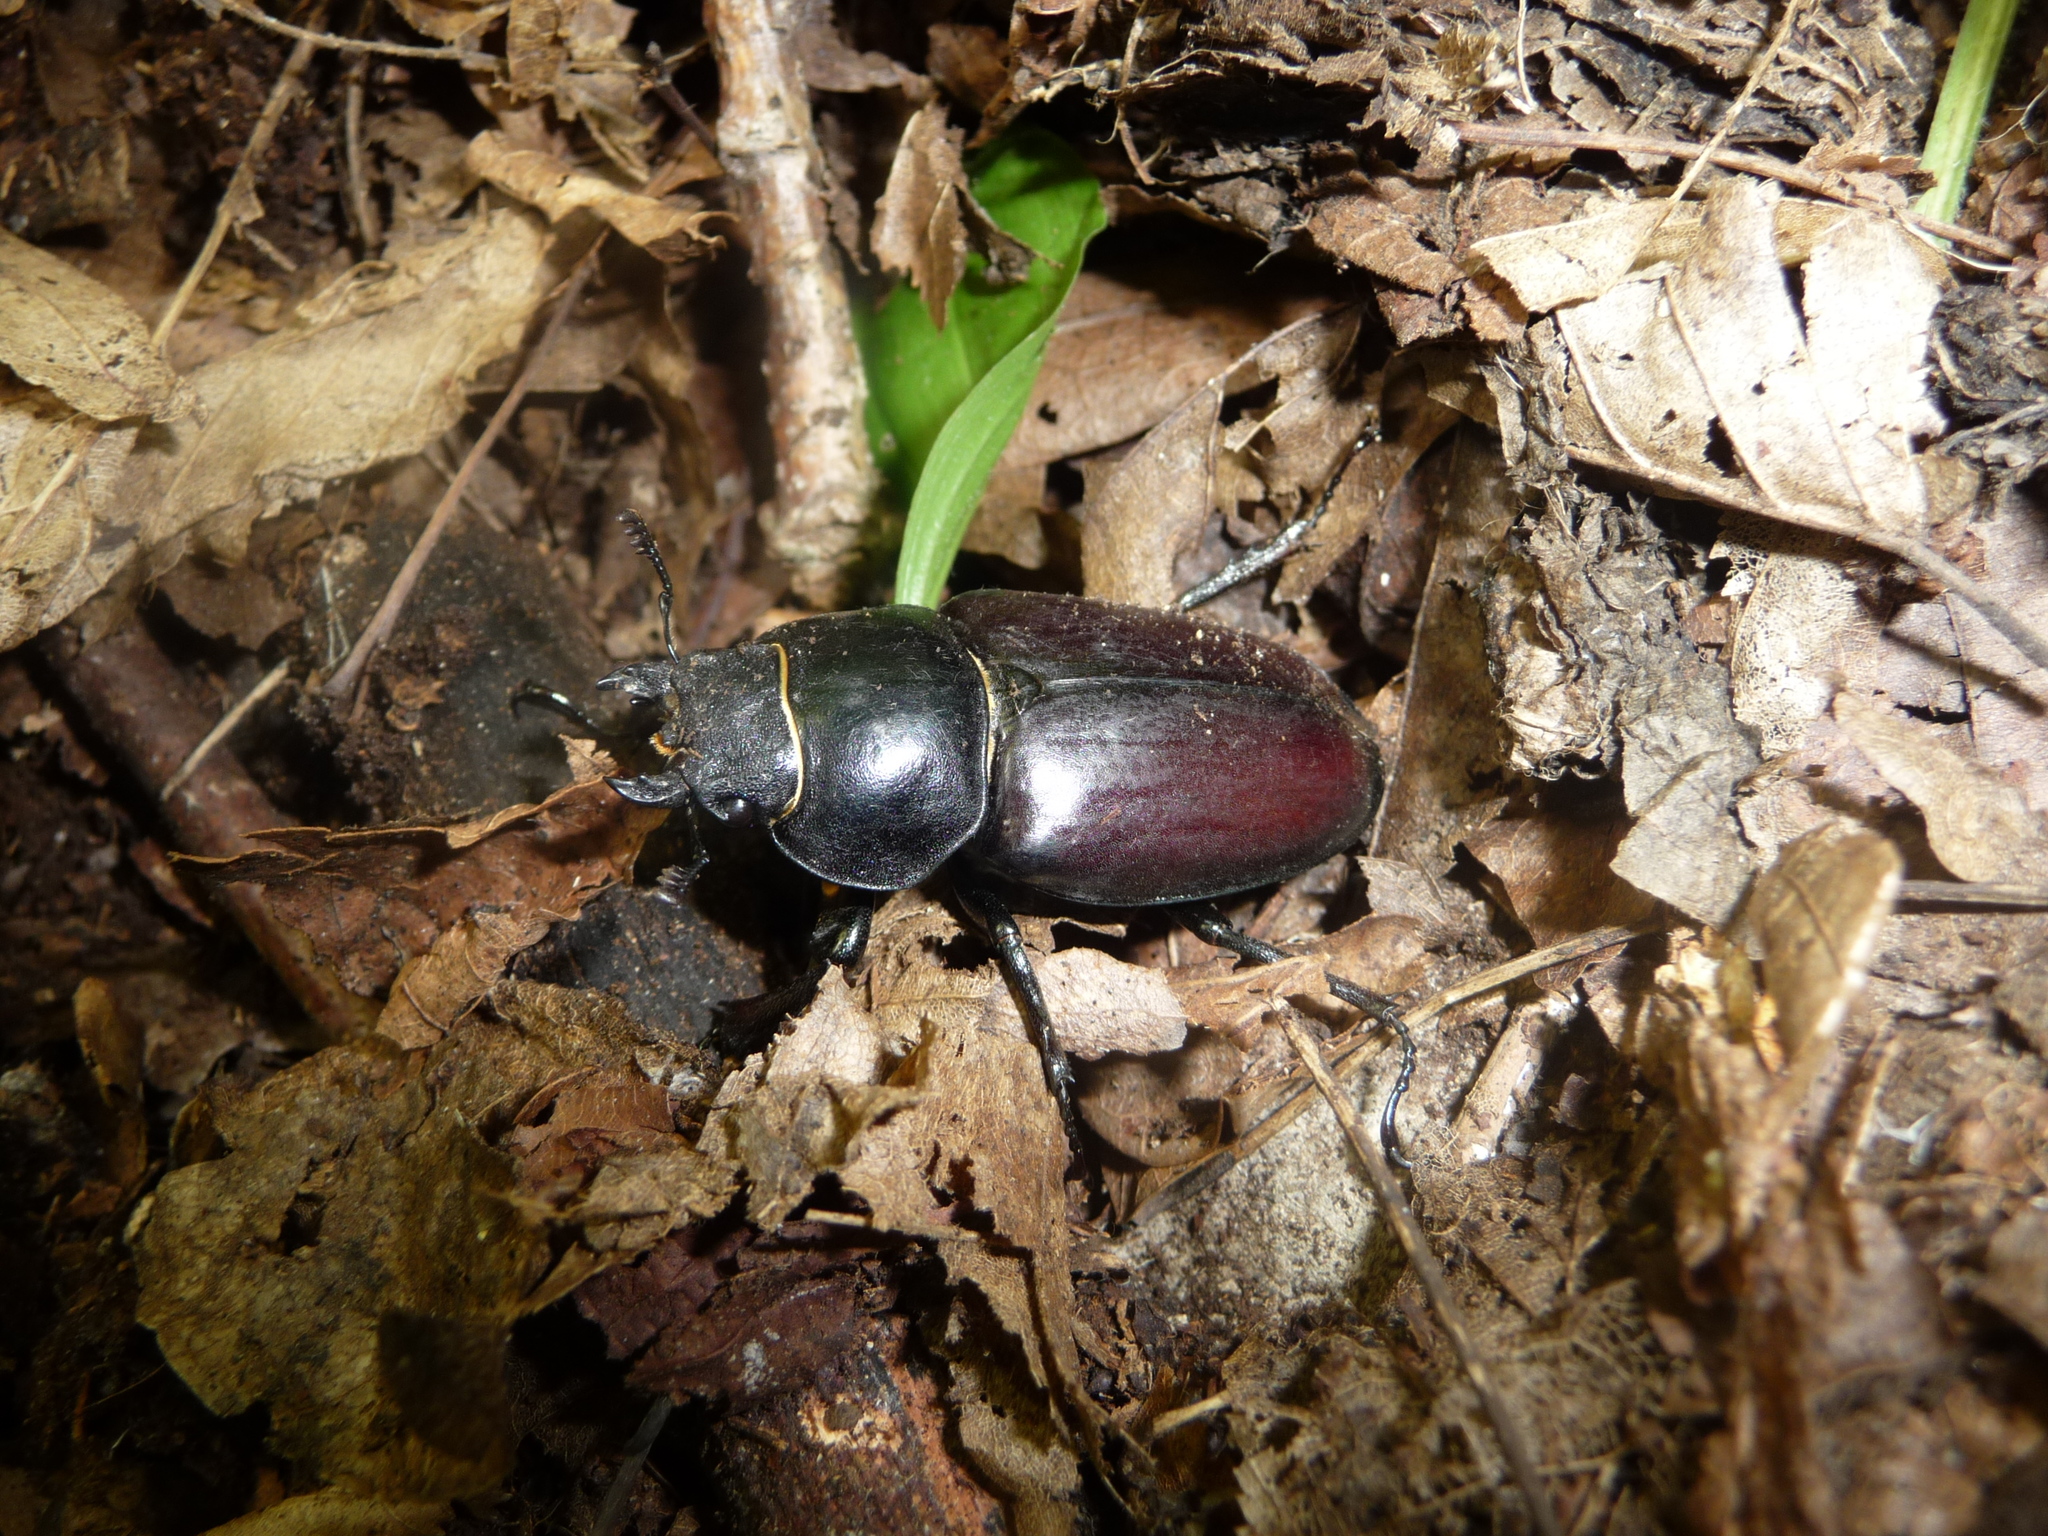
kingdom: Animalia
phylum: Arthropoda
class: Insecta
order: Coleoptera
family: Lucanidae
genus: Lucanus
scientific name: Lucanus cervus
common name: Stag beetle
